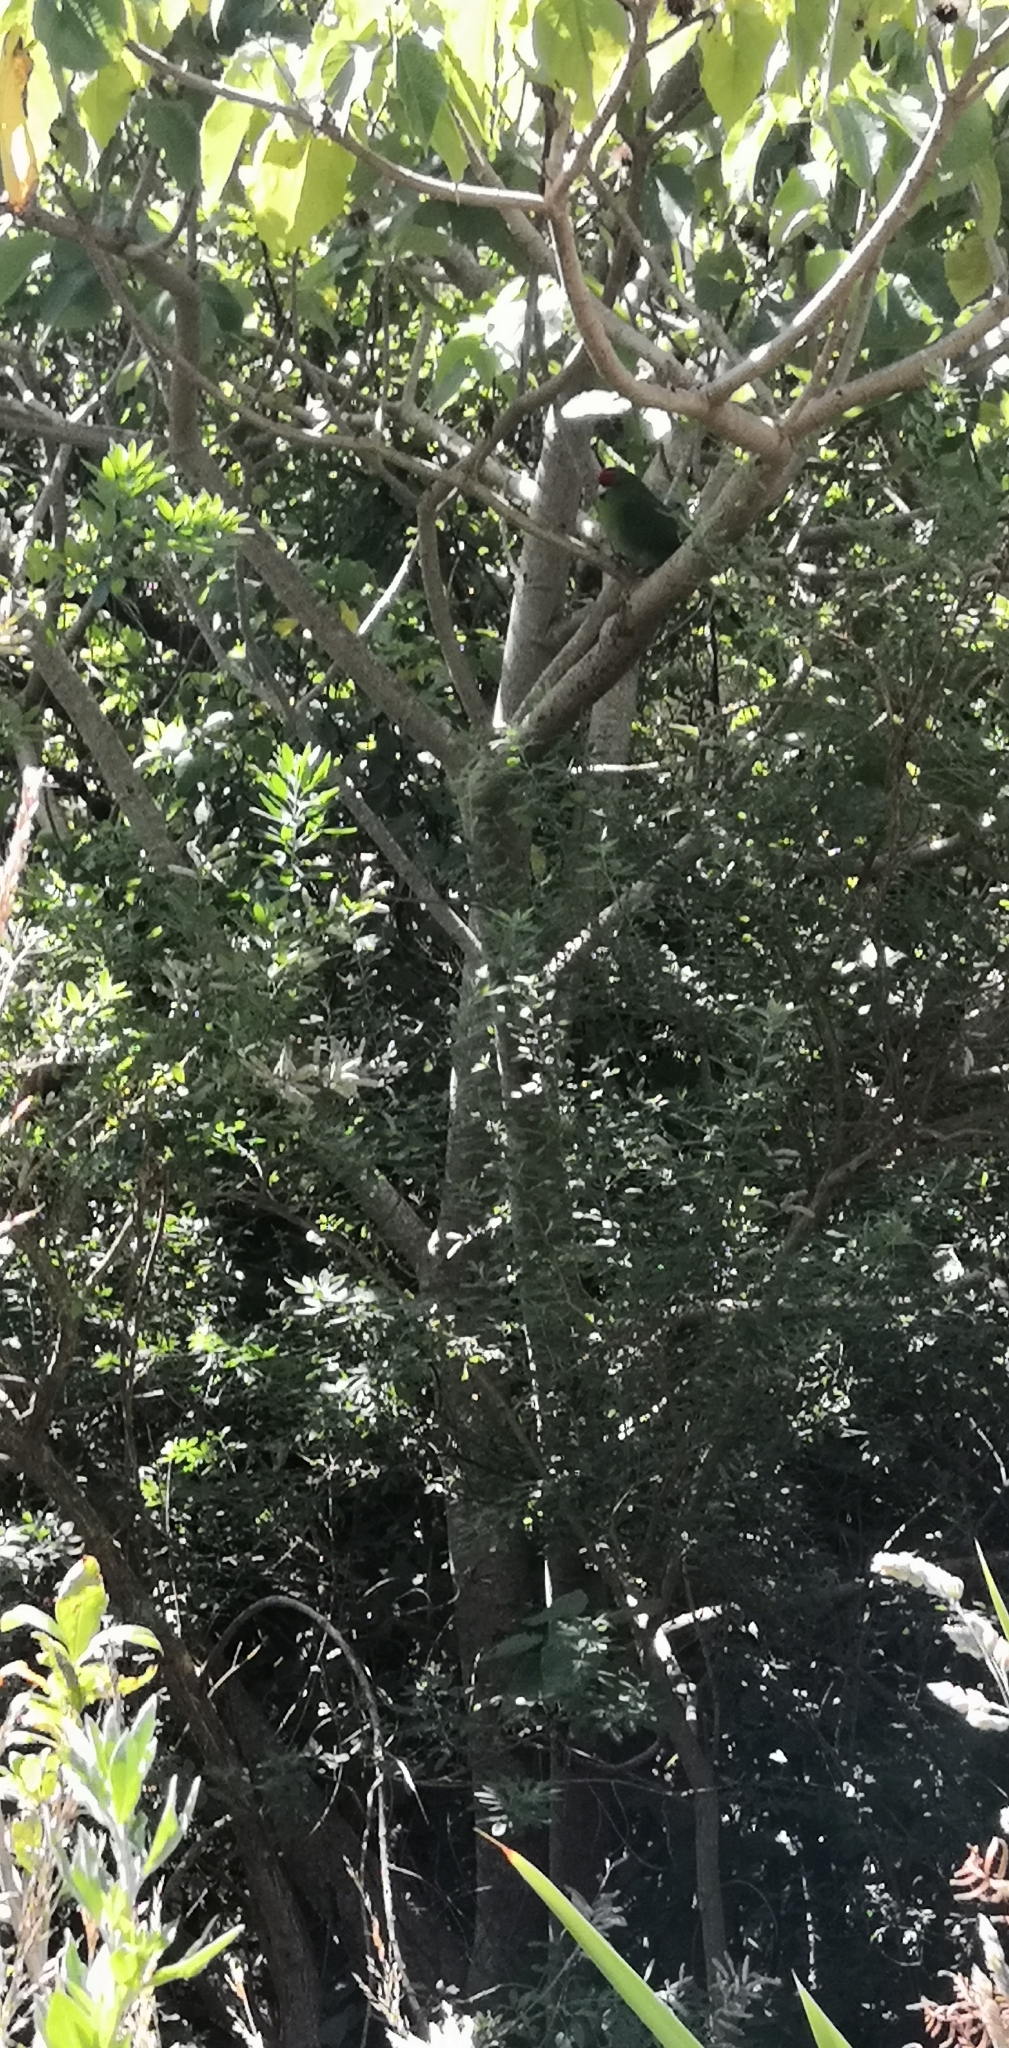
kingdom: Animalia
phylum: Chordata
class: Aves
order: Psittaciformes
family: Psittacidae
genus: Cyanoramphus
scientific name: Cyanoramphus novaezelandiae
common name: Red-fronted parakeet
